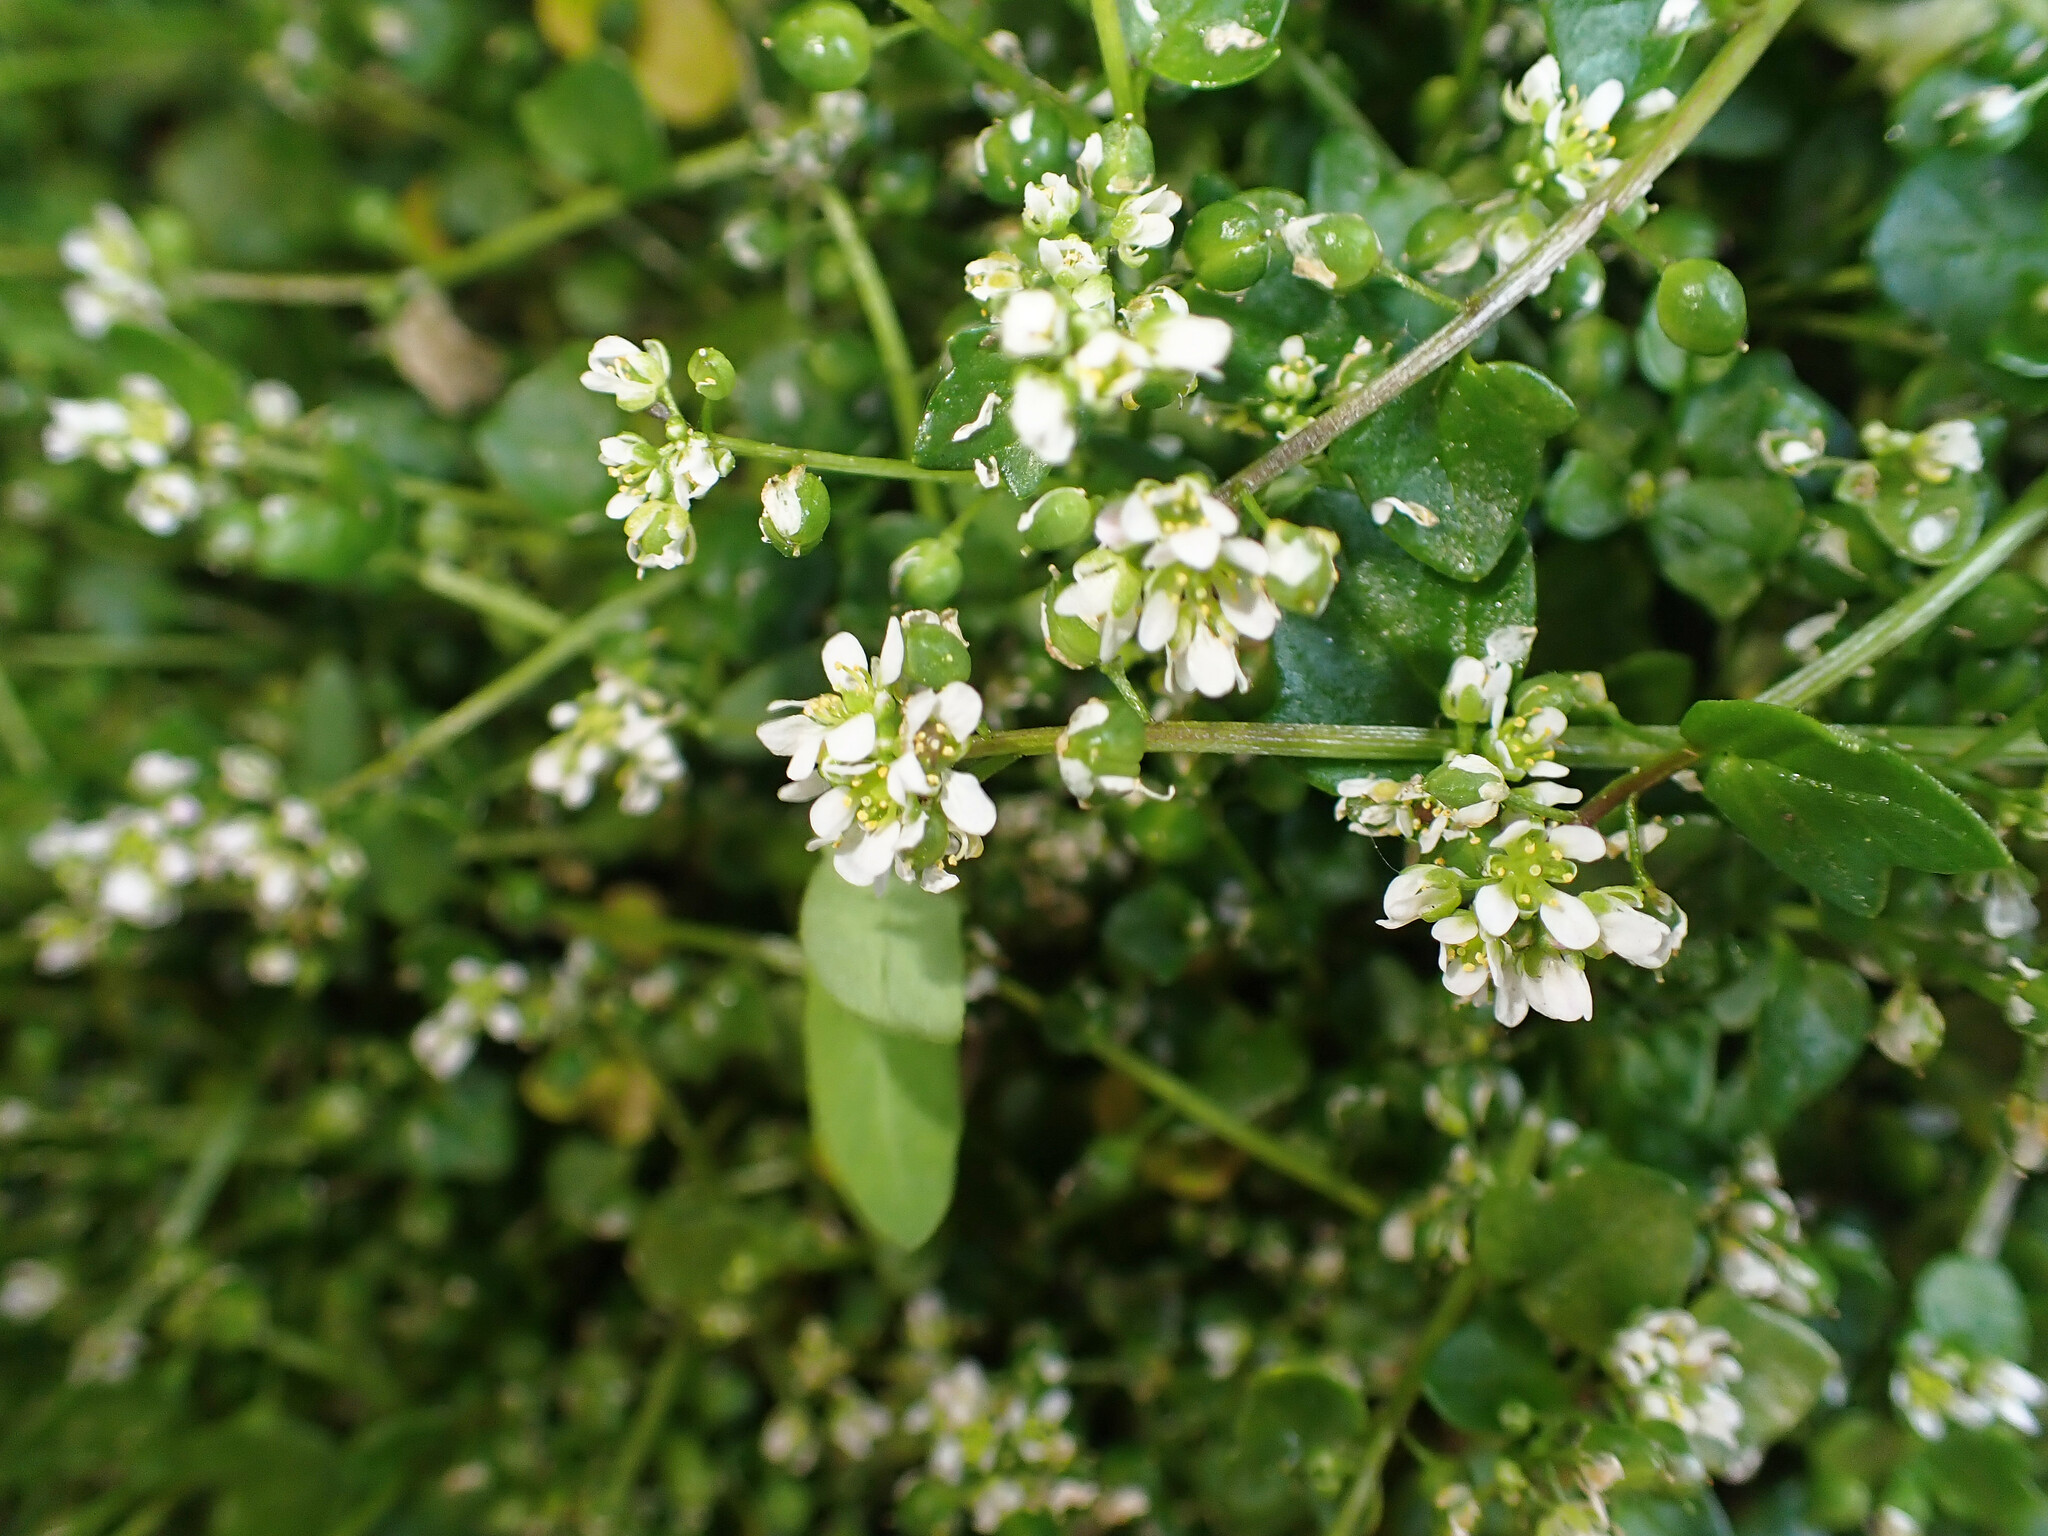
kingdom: Plantae
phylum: Tracheophyta
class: Magnoliopsida
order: Brassicales
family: Brassicaceae
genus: Cochlearia
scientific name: Cochlearia danica
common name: Early scurvygrass
